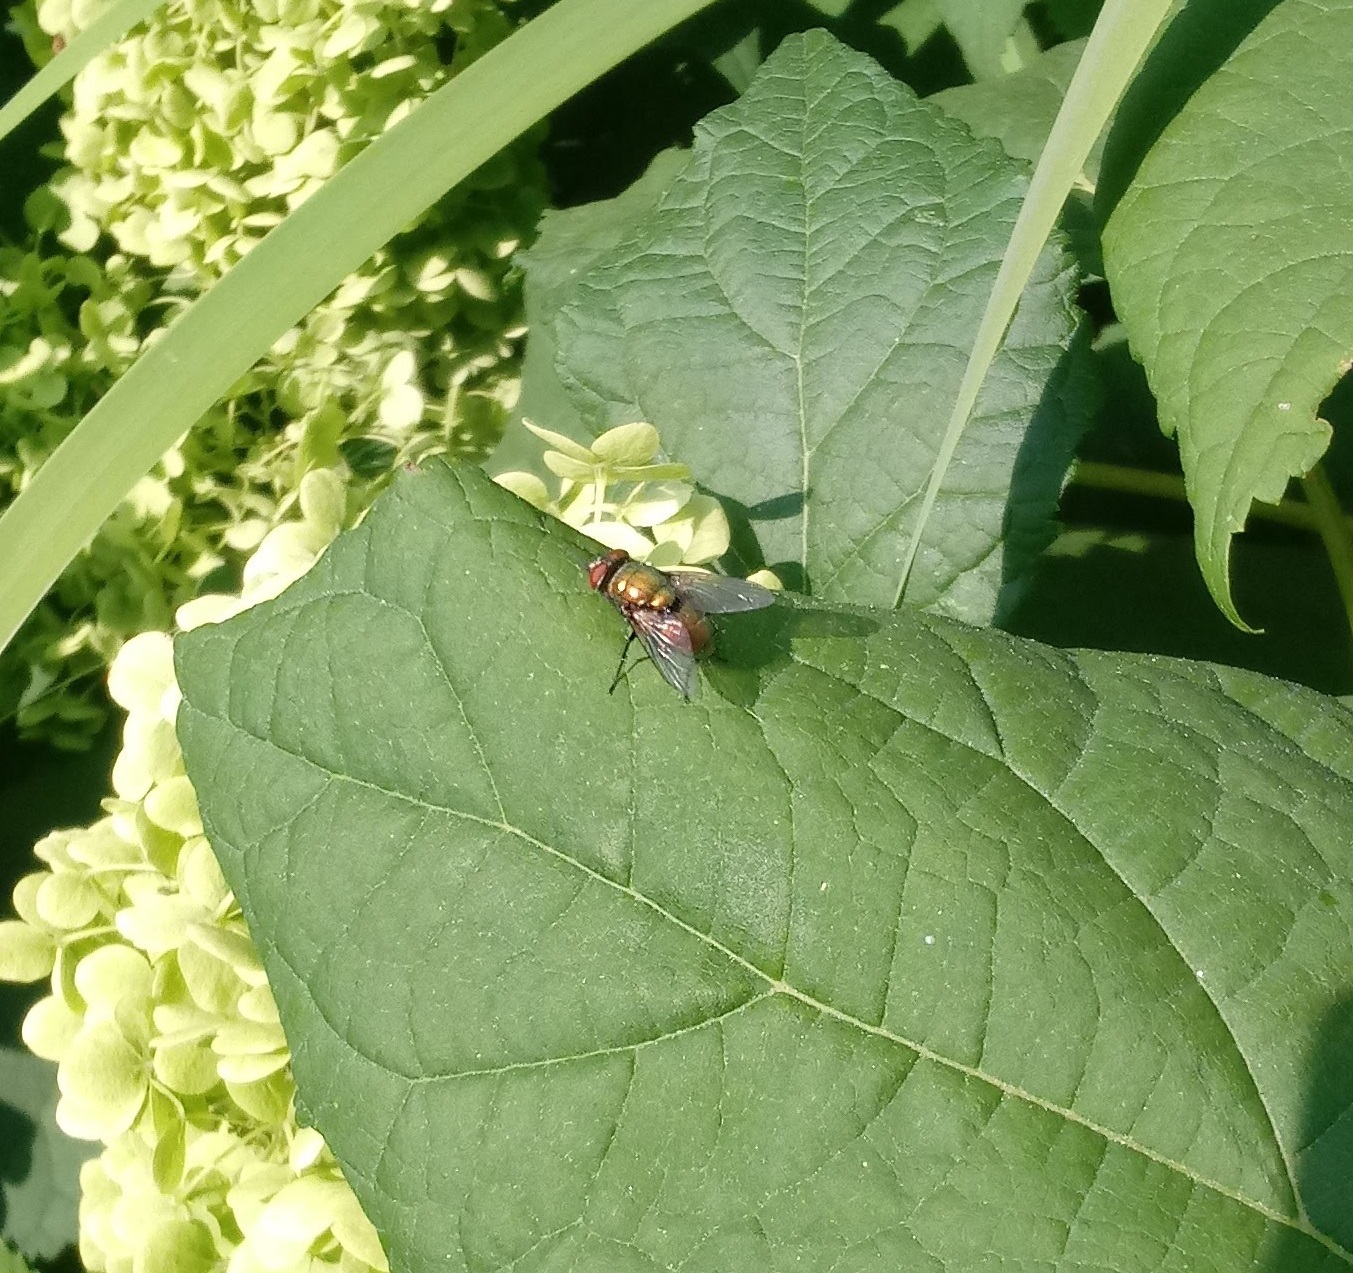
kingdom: Animalia
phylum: Arthropoda
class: Insecta
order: Diptera
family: Calliphoridae
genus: Lucilia
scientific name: Lucilia sericata
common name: Blow fly
